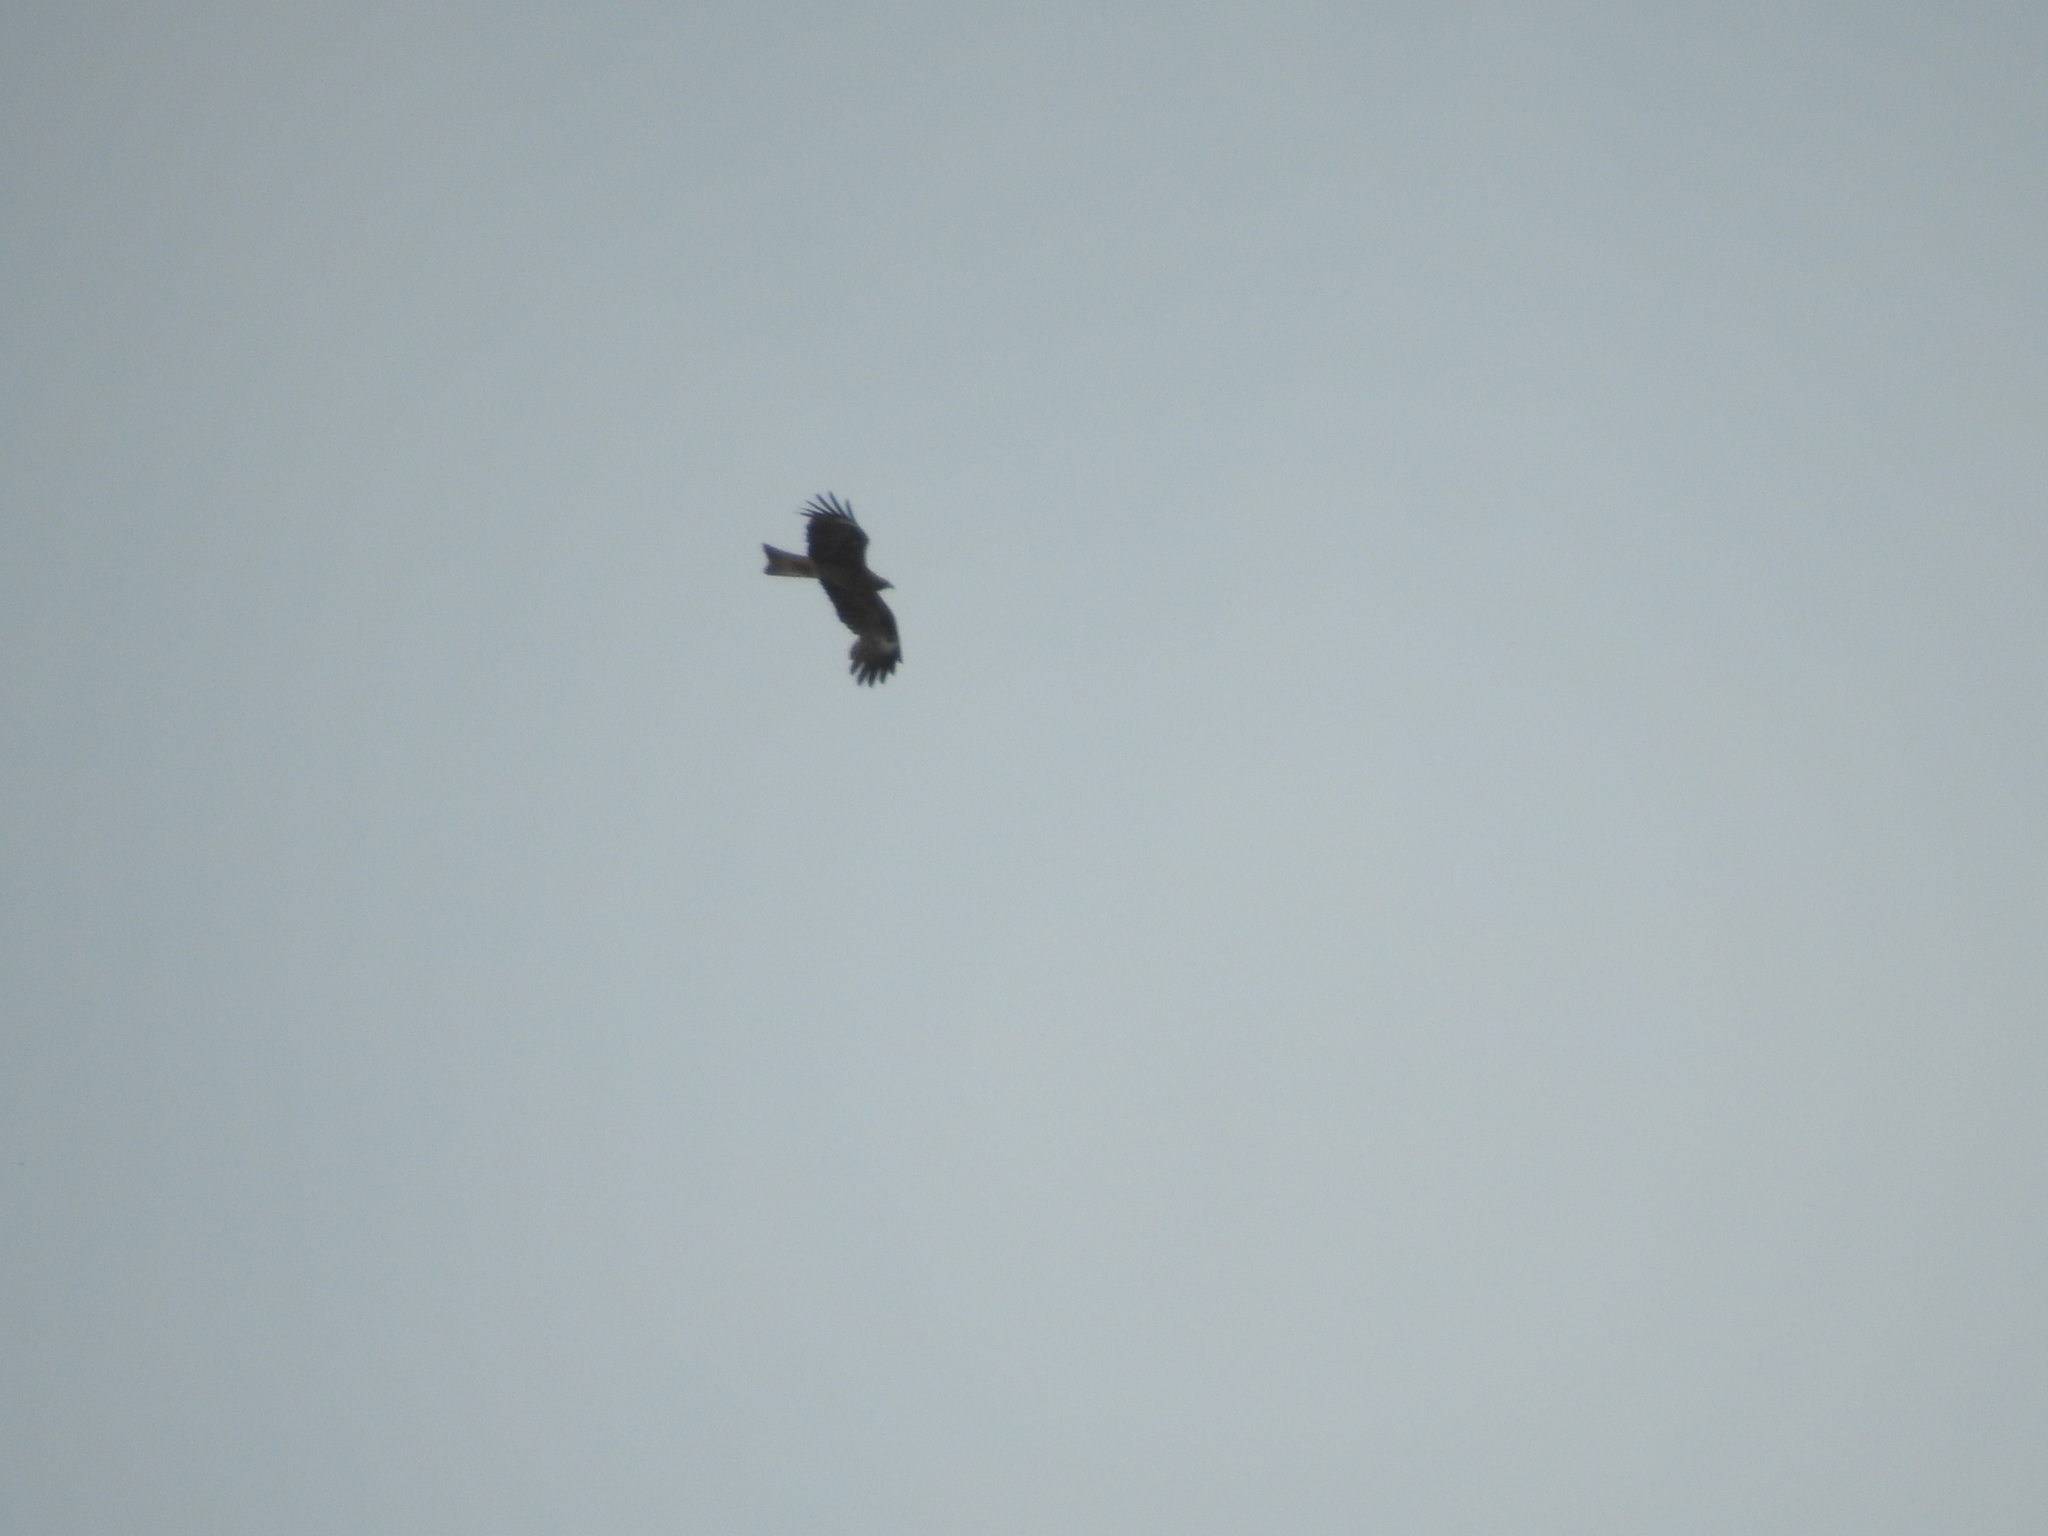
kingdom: Animalia
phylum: Chordata
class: Aves
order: Accipitriformes
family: Accipitridae
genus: Milvus
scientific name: Milvus migrans
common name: Black kite
